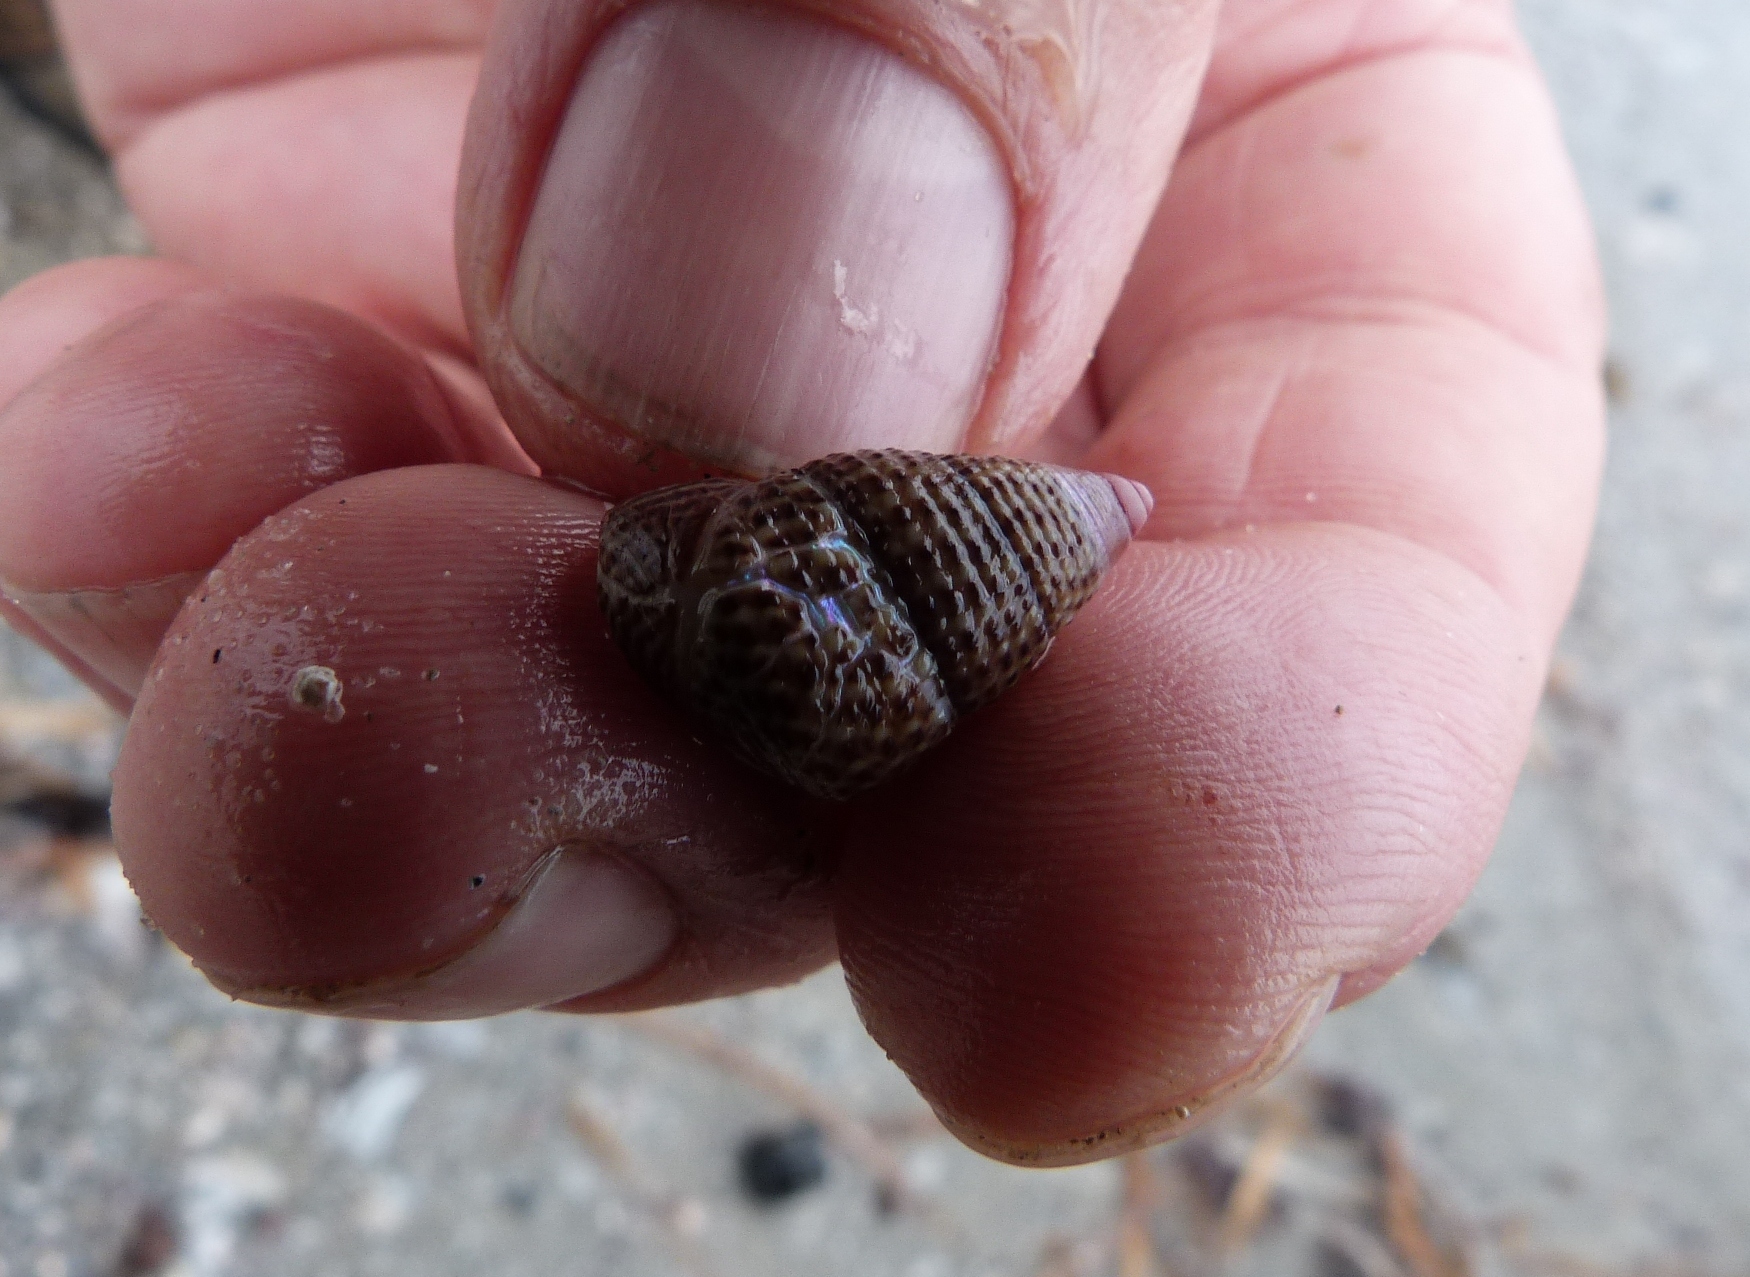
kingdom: Animalia
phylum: Mollusca
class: Gastropoda
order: Trochida
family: Trochidae
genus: Thalotia
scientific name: Thalotia conica
